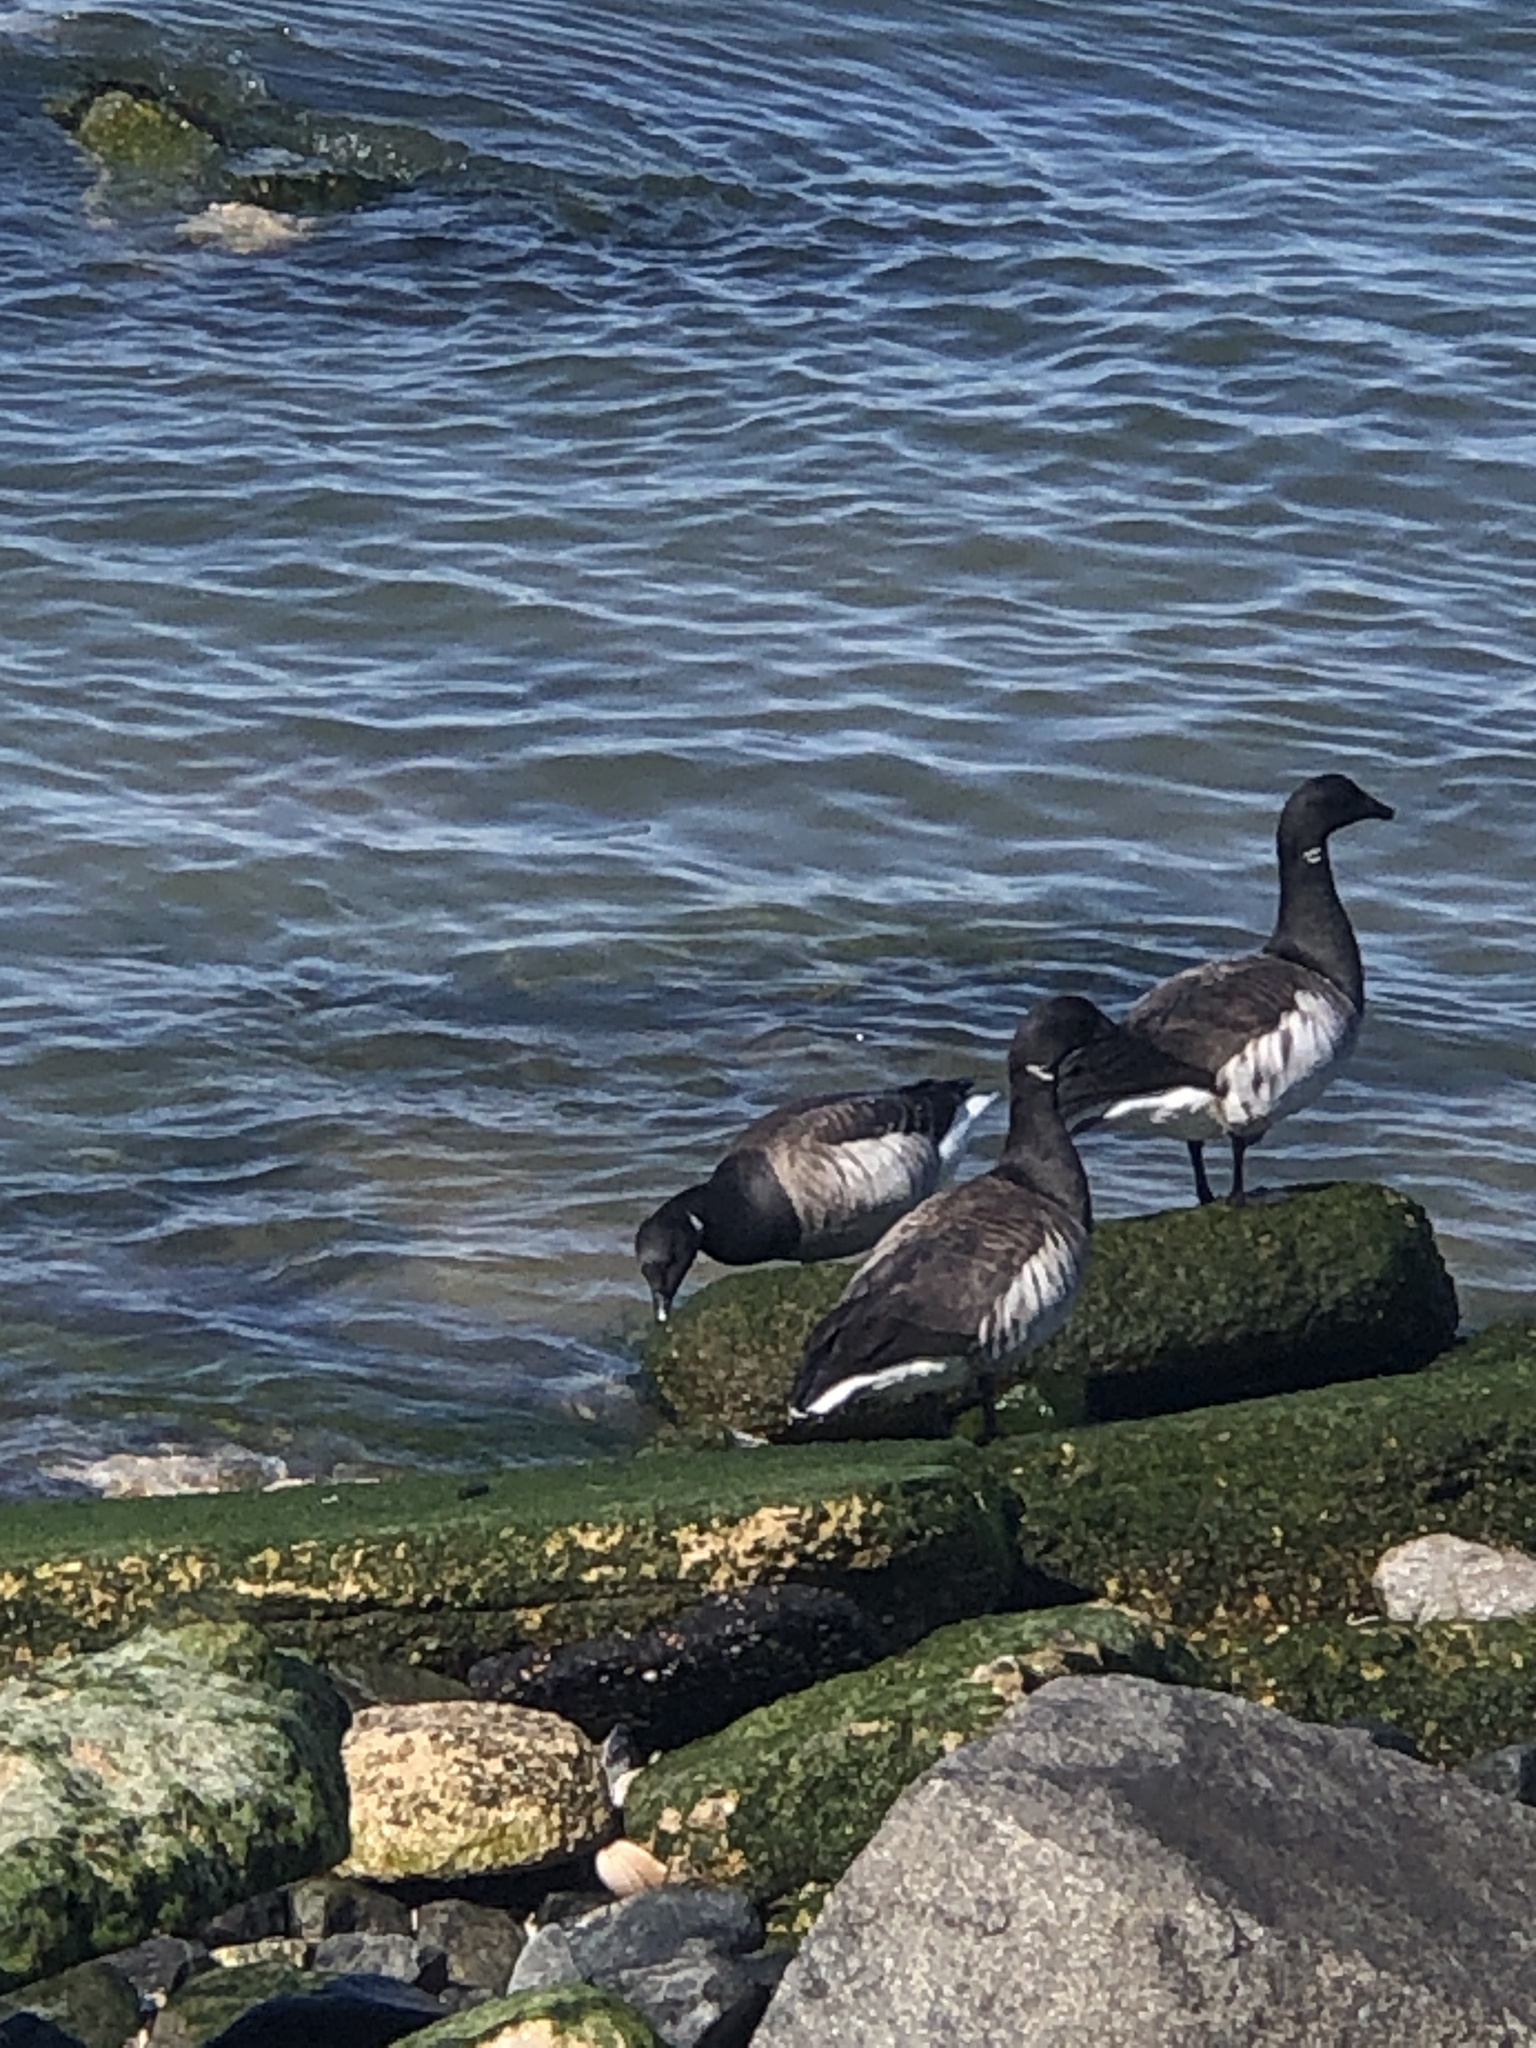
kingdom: Animalia
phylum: Chordata
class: Aves
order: Anseriformes
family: Anatidae
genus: Branta
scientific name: Branta bernicla
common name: Brant goose
